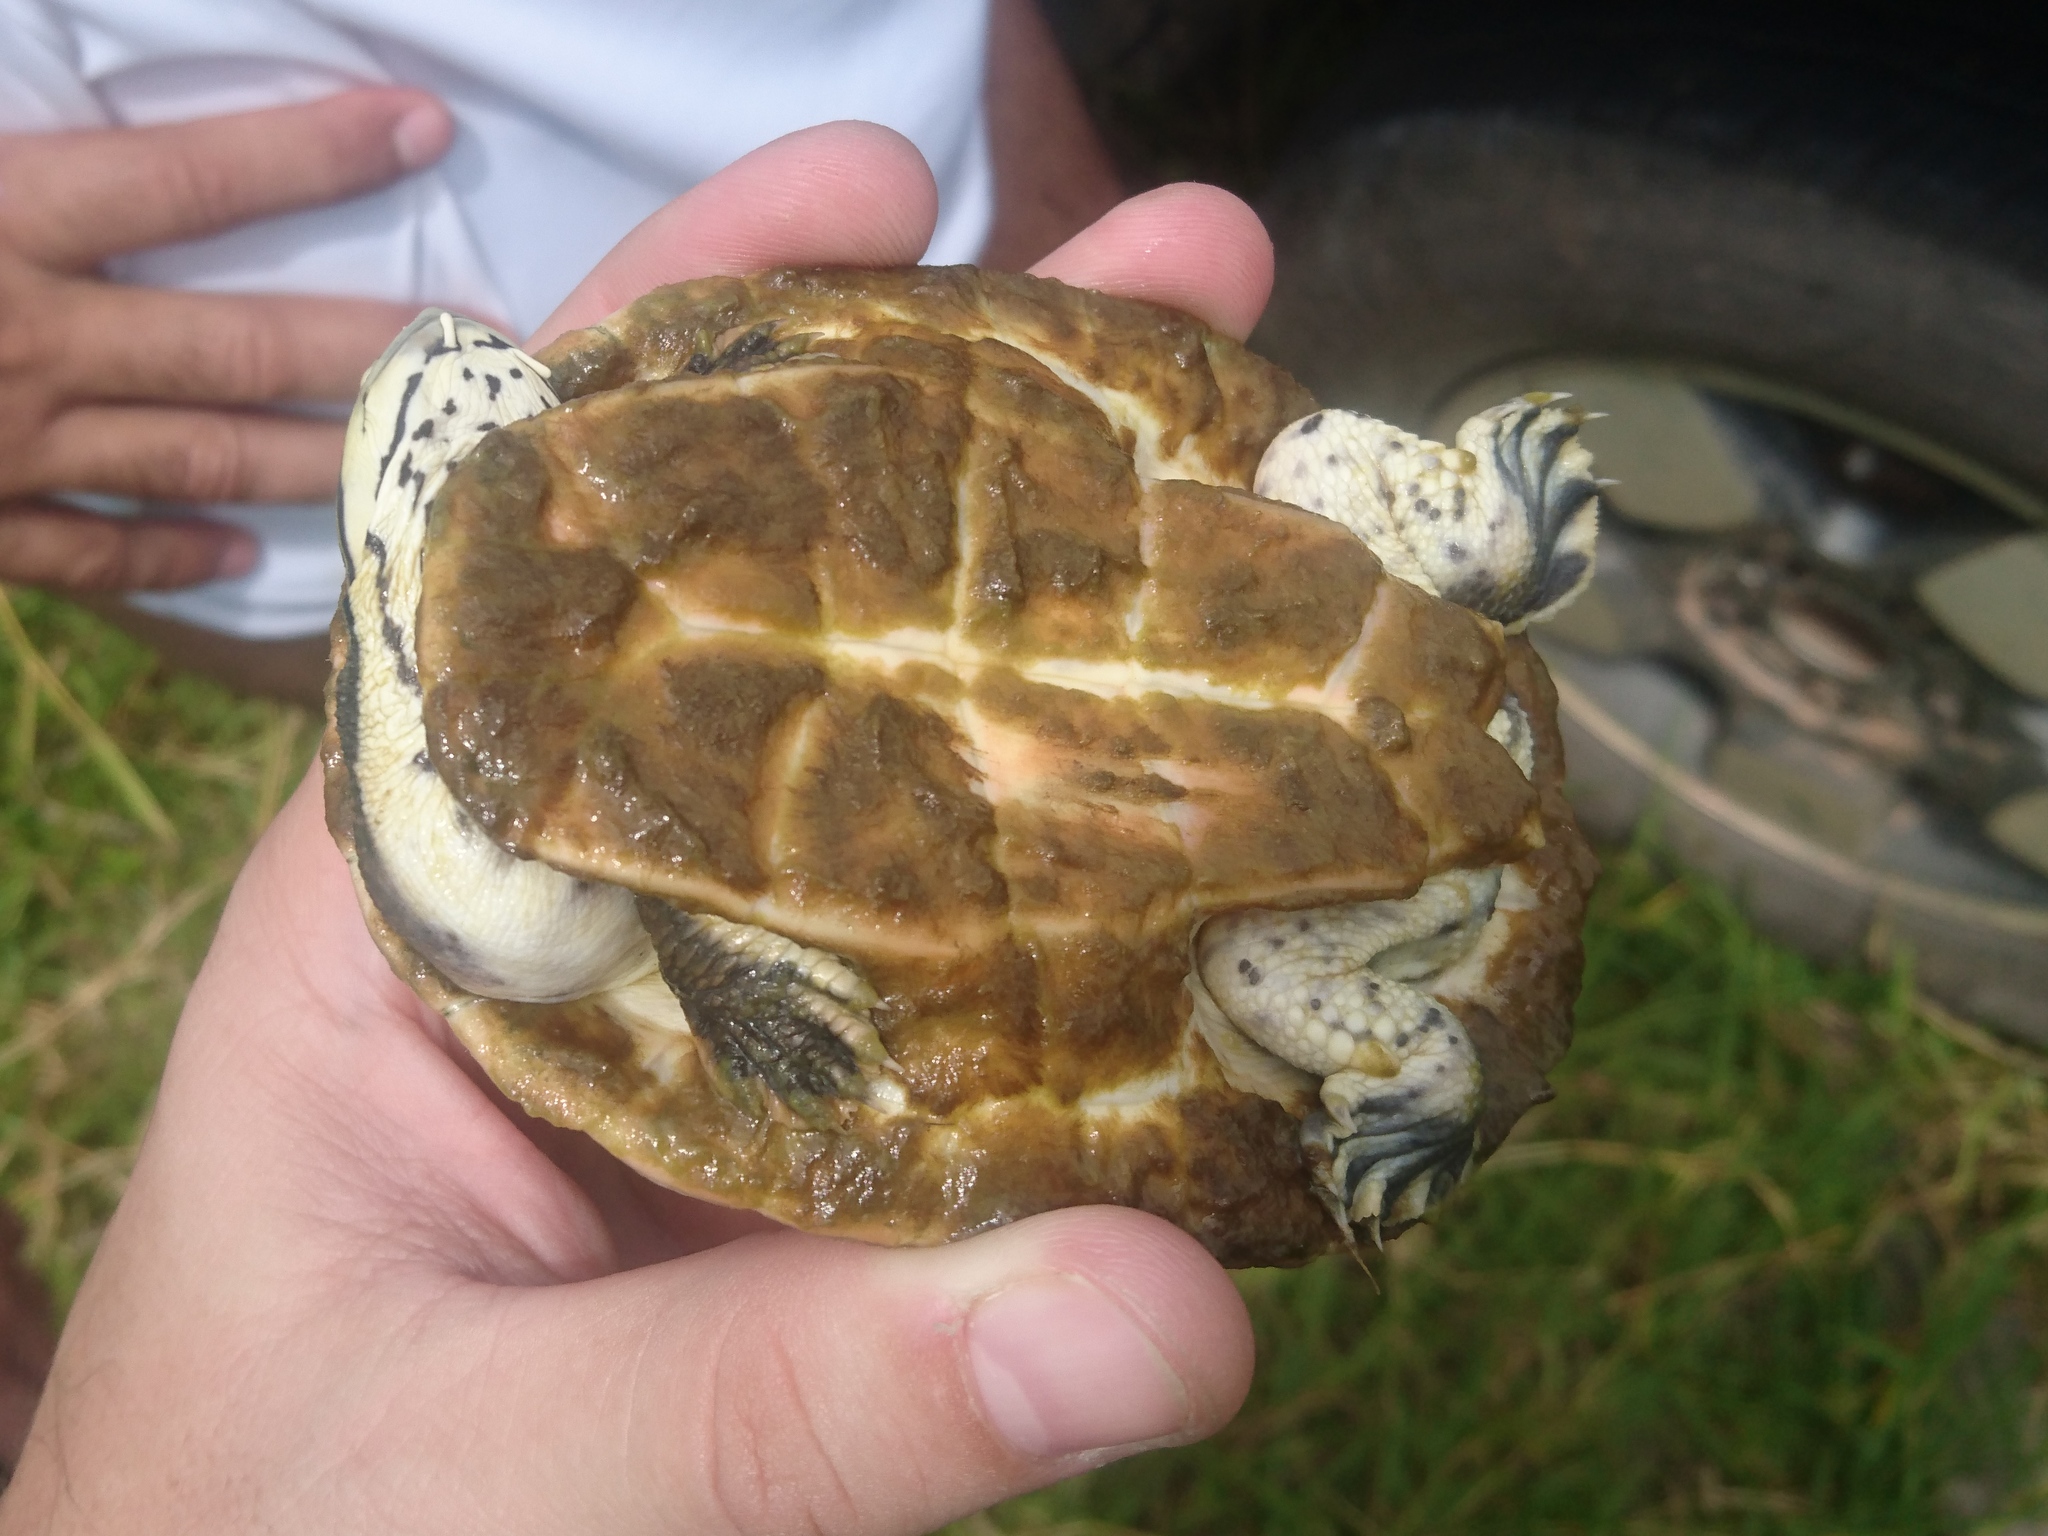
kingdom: Animalia
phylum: Chordata
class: Testudines
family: Chelidae
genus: Phrynops
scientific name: Phrynops geoffroanus
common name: Side-necked turtle of geoffroy
